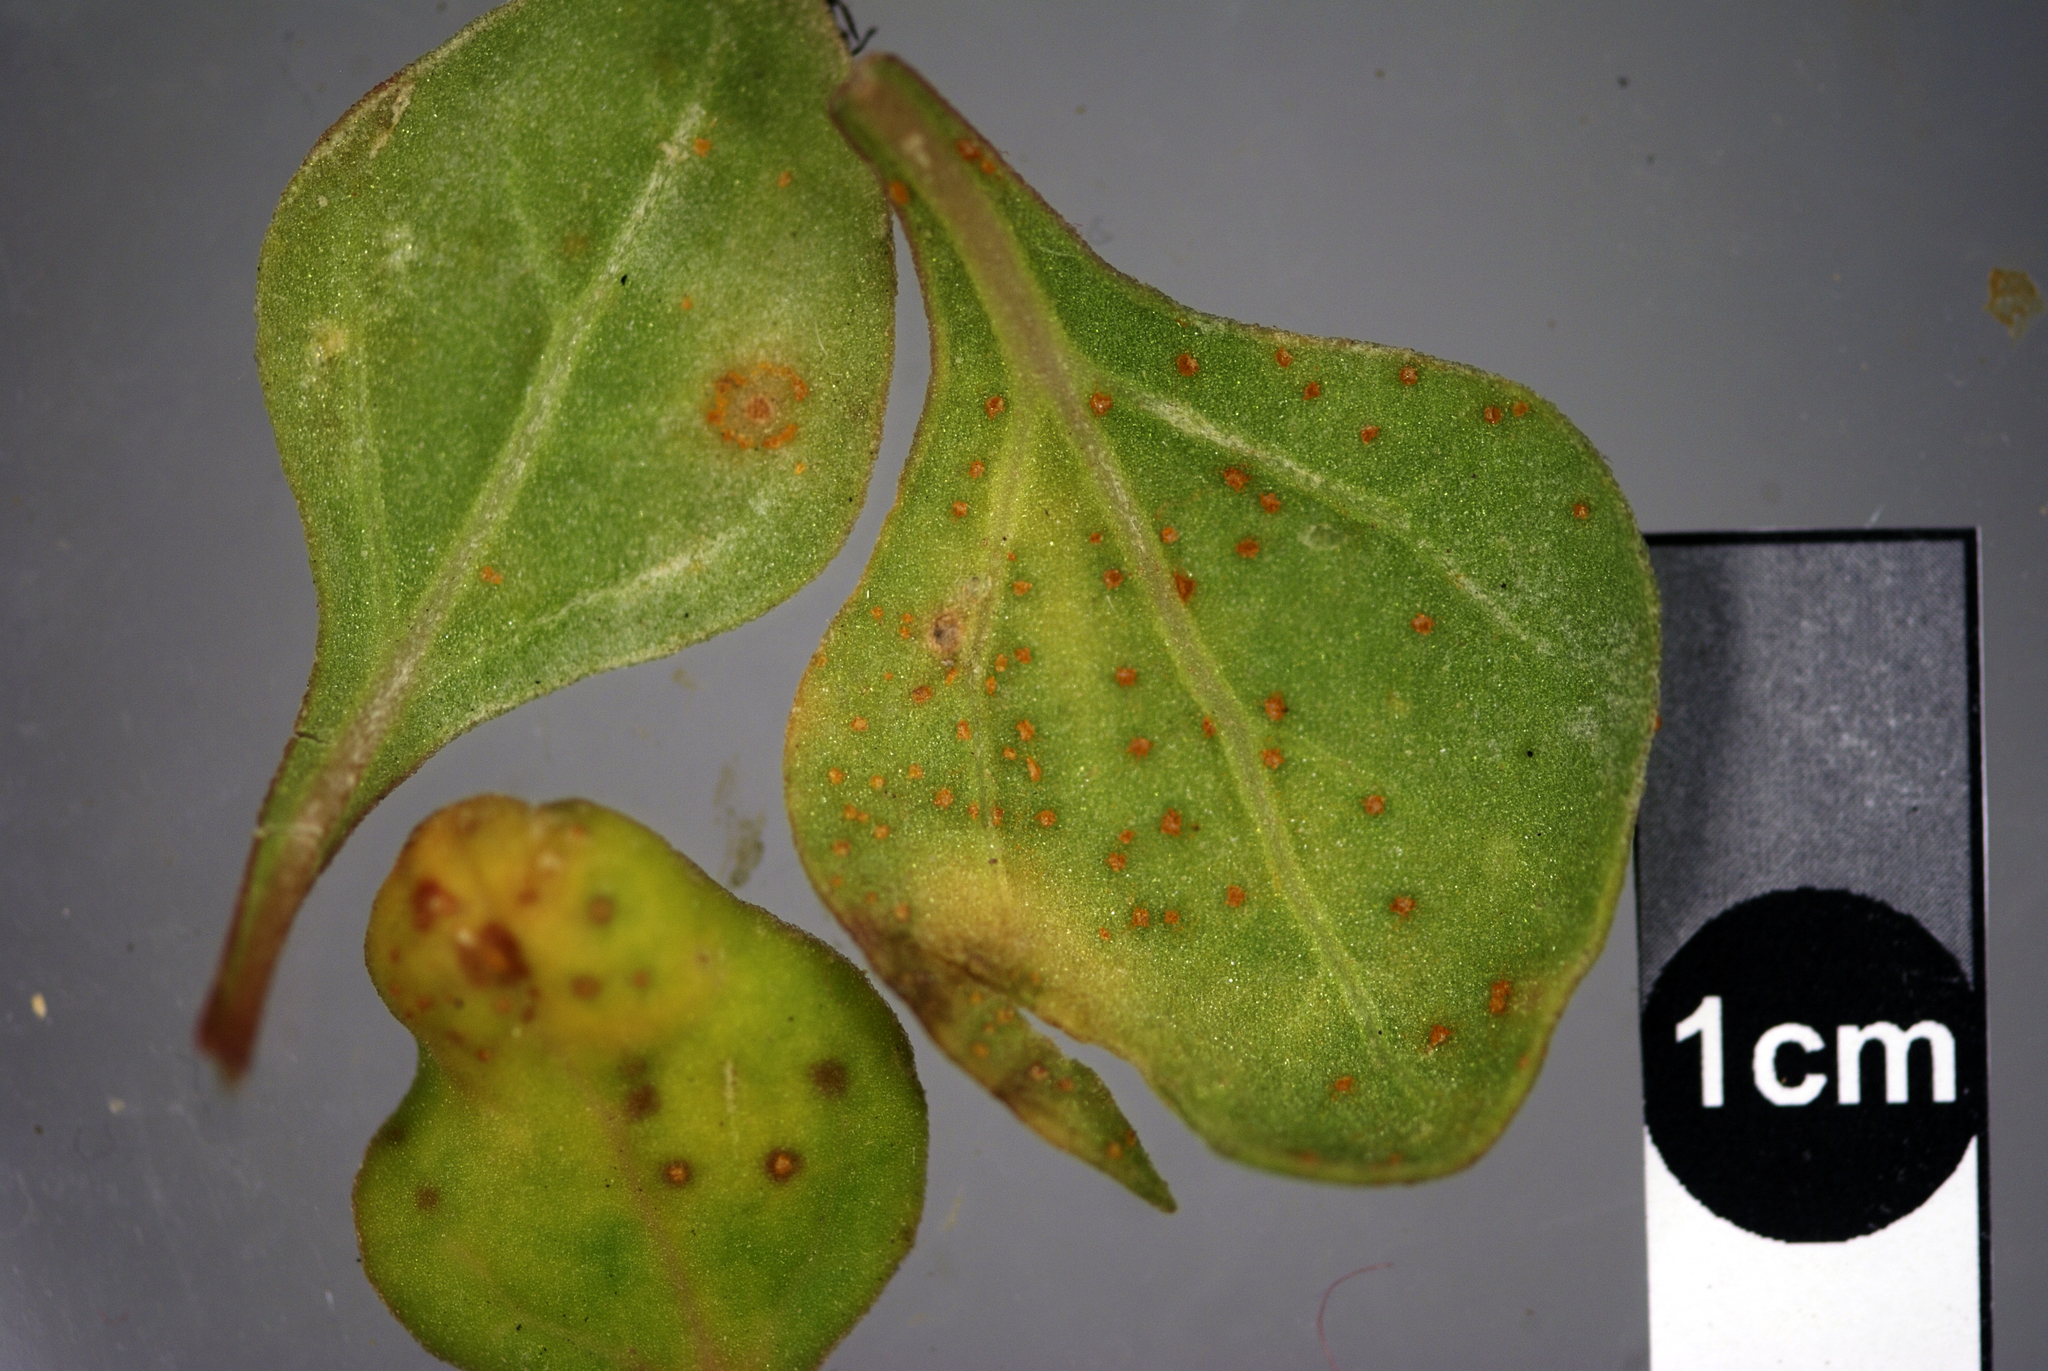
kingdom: Fungi
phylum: Basidiomycota
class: Pucciniomycetes
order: Pucciniales
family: Pucciniaceae
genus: Puccinia
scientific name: Puccinia tetragoniae
